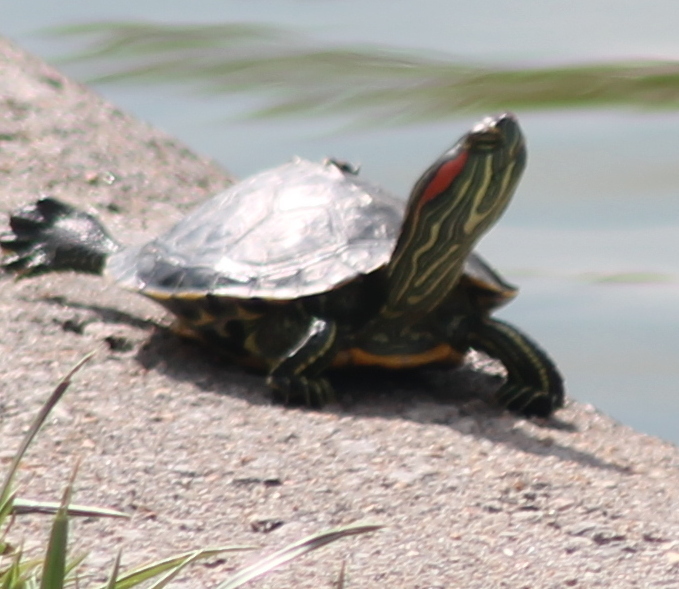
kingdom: Animalia
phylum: Chordata
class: Testudines
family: Emydidae
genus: Trachemys
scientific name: Trachemys scripta
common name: Slider
